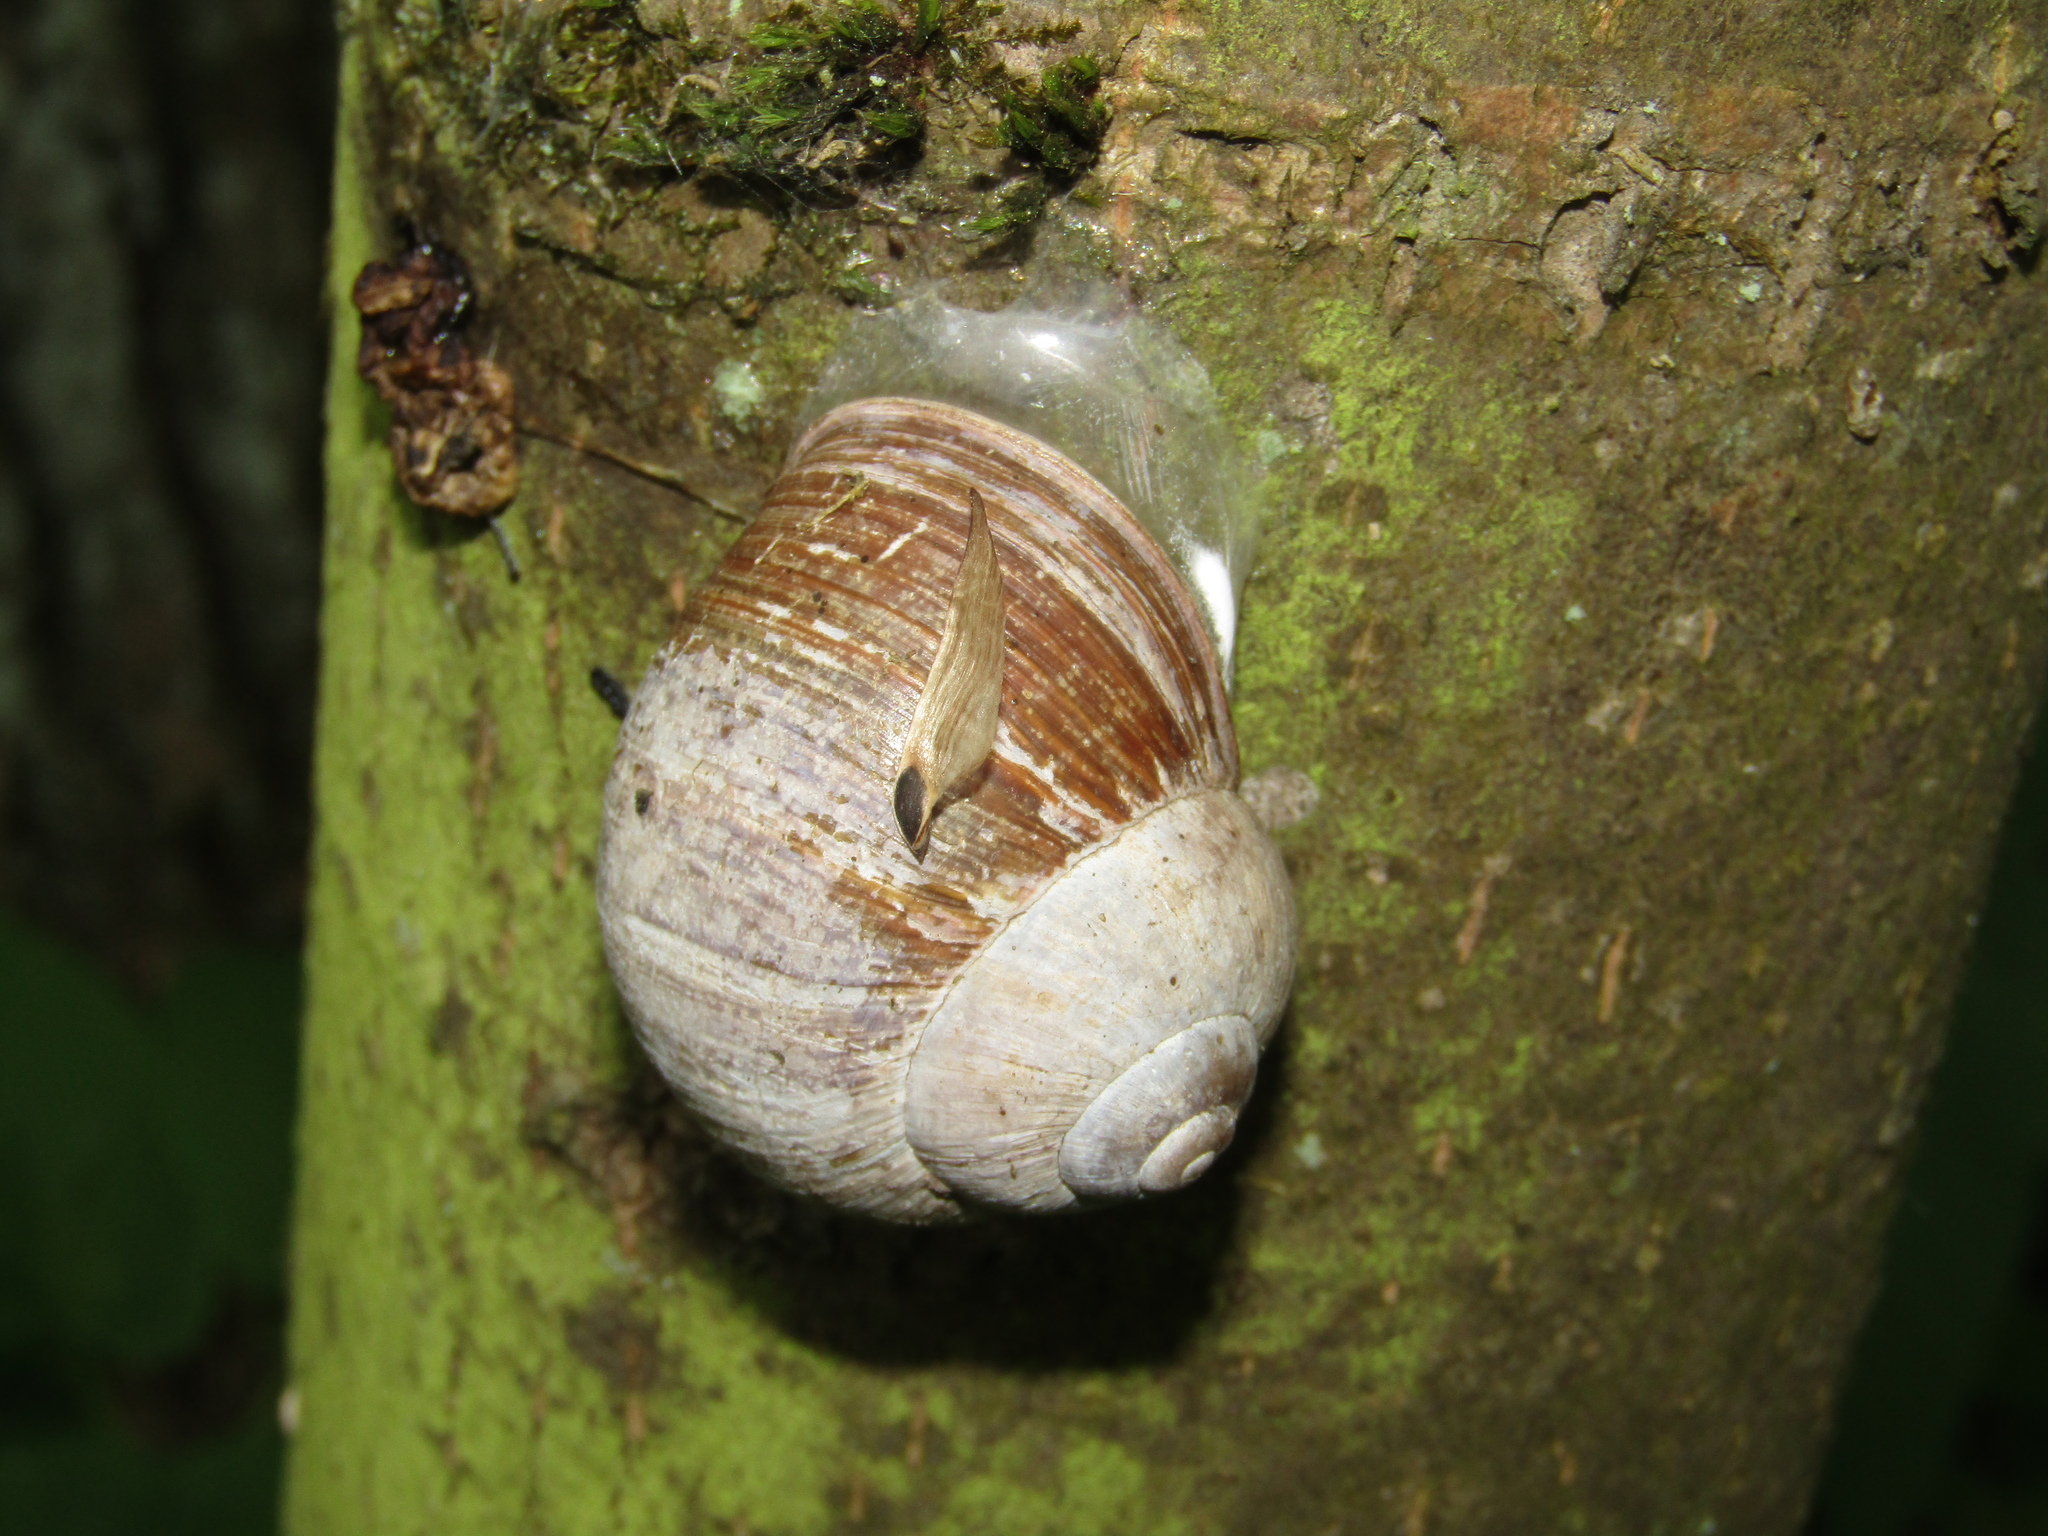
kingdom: Animalia
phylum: Mollusca
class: Gastropoda
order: Stylommatophora
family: Helicidae
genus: Helix
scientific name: Helix pomatia
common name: Roman snail
